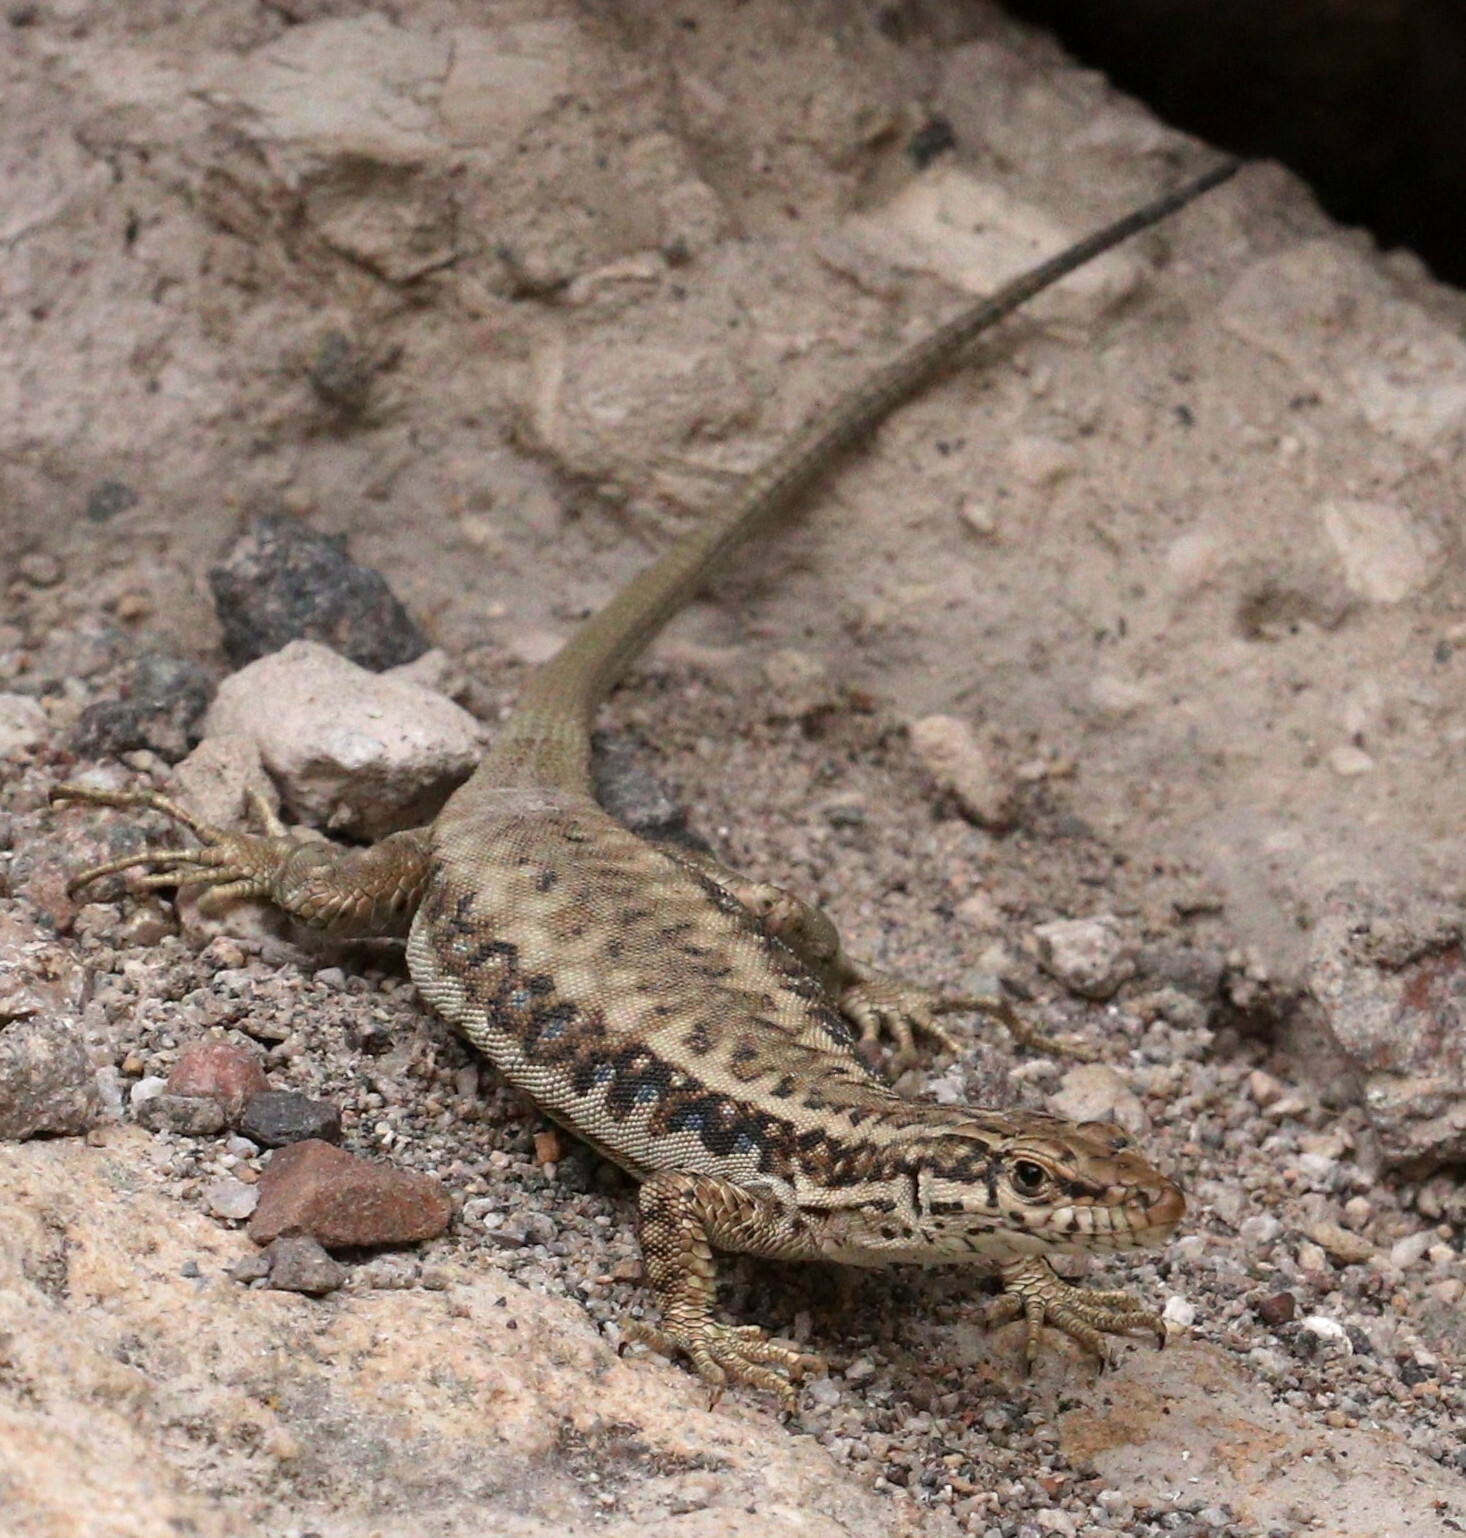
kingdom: Animalia
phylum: Chordata
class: Squamata
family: Lacertidae
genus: Apathya
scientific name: Apathya cappadocica
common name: Anatolian lizard
